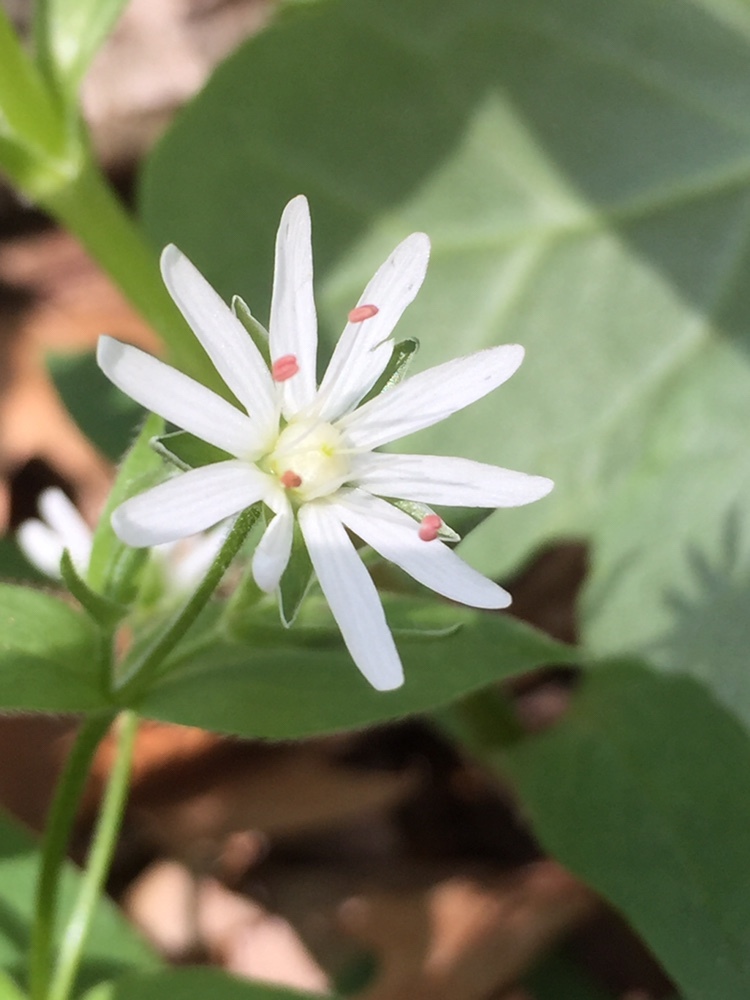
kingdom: Plantae
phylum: Tracheophyta
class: Magnoliopsida
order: Caryophyllales
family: Caryophyllaceae
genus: Stellaria
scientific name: Stellaria pubera
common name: Star chickweed
